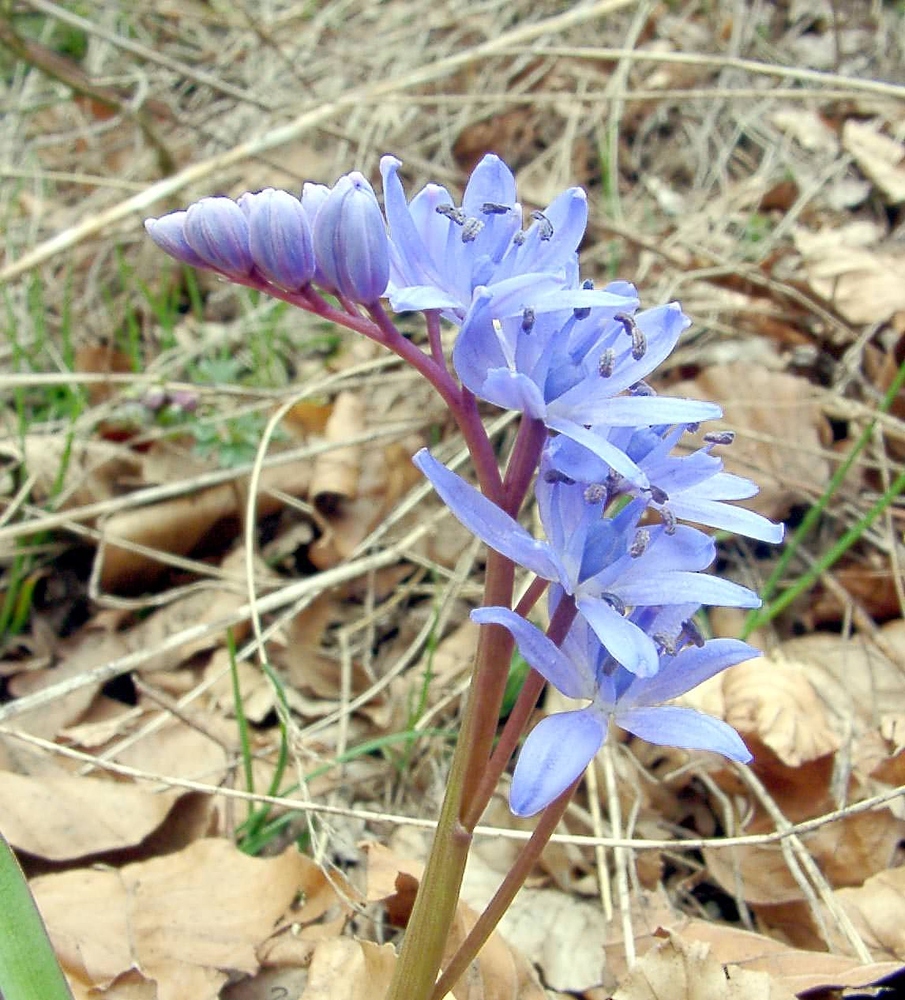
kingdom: Plantae
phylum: Tracheophyta
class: Liliopsida
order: Asparagales
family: Asparagaceae
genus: Scilla
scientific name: Scilla bifolia
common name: Alpine squill
